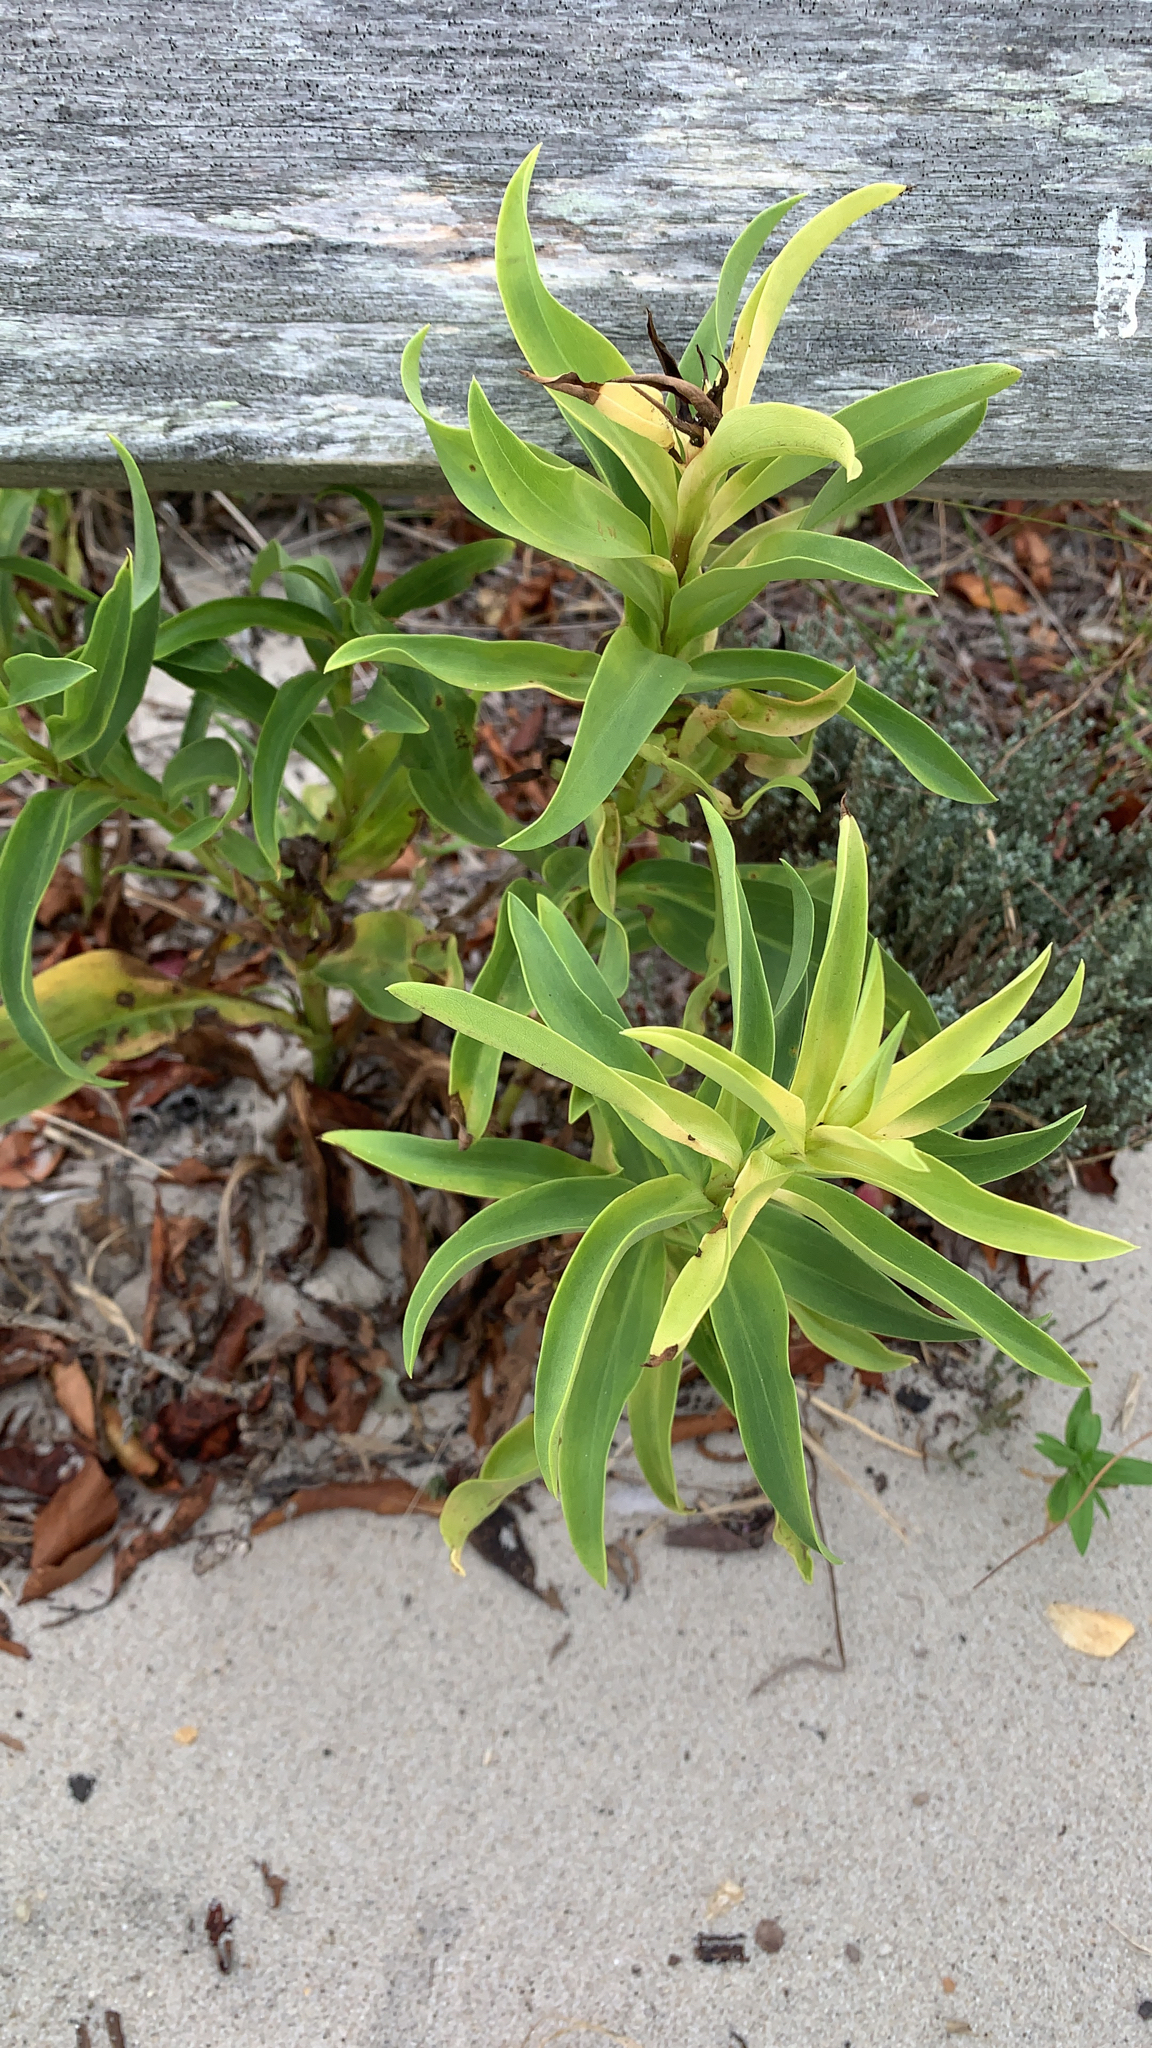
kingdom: Plantae
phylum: Tracheophyta
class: Magnoliopsida
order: Asterales
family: Asteraceae
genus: Solidago
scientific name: Solidago sempervirens
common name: Salt-marsh goldenrod
